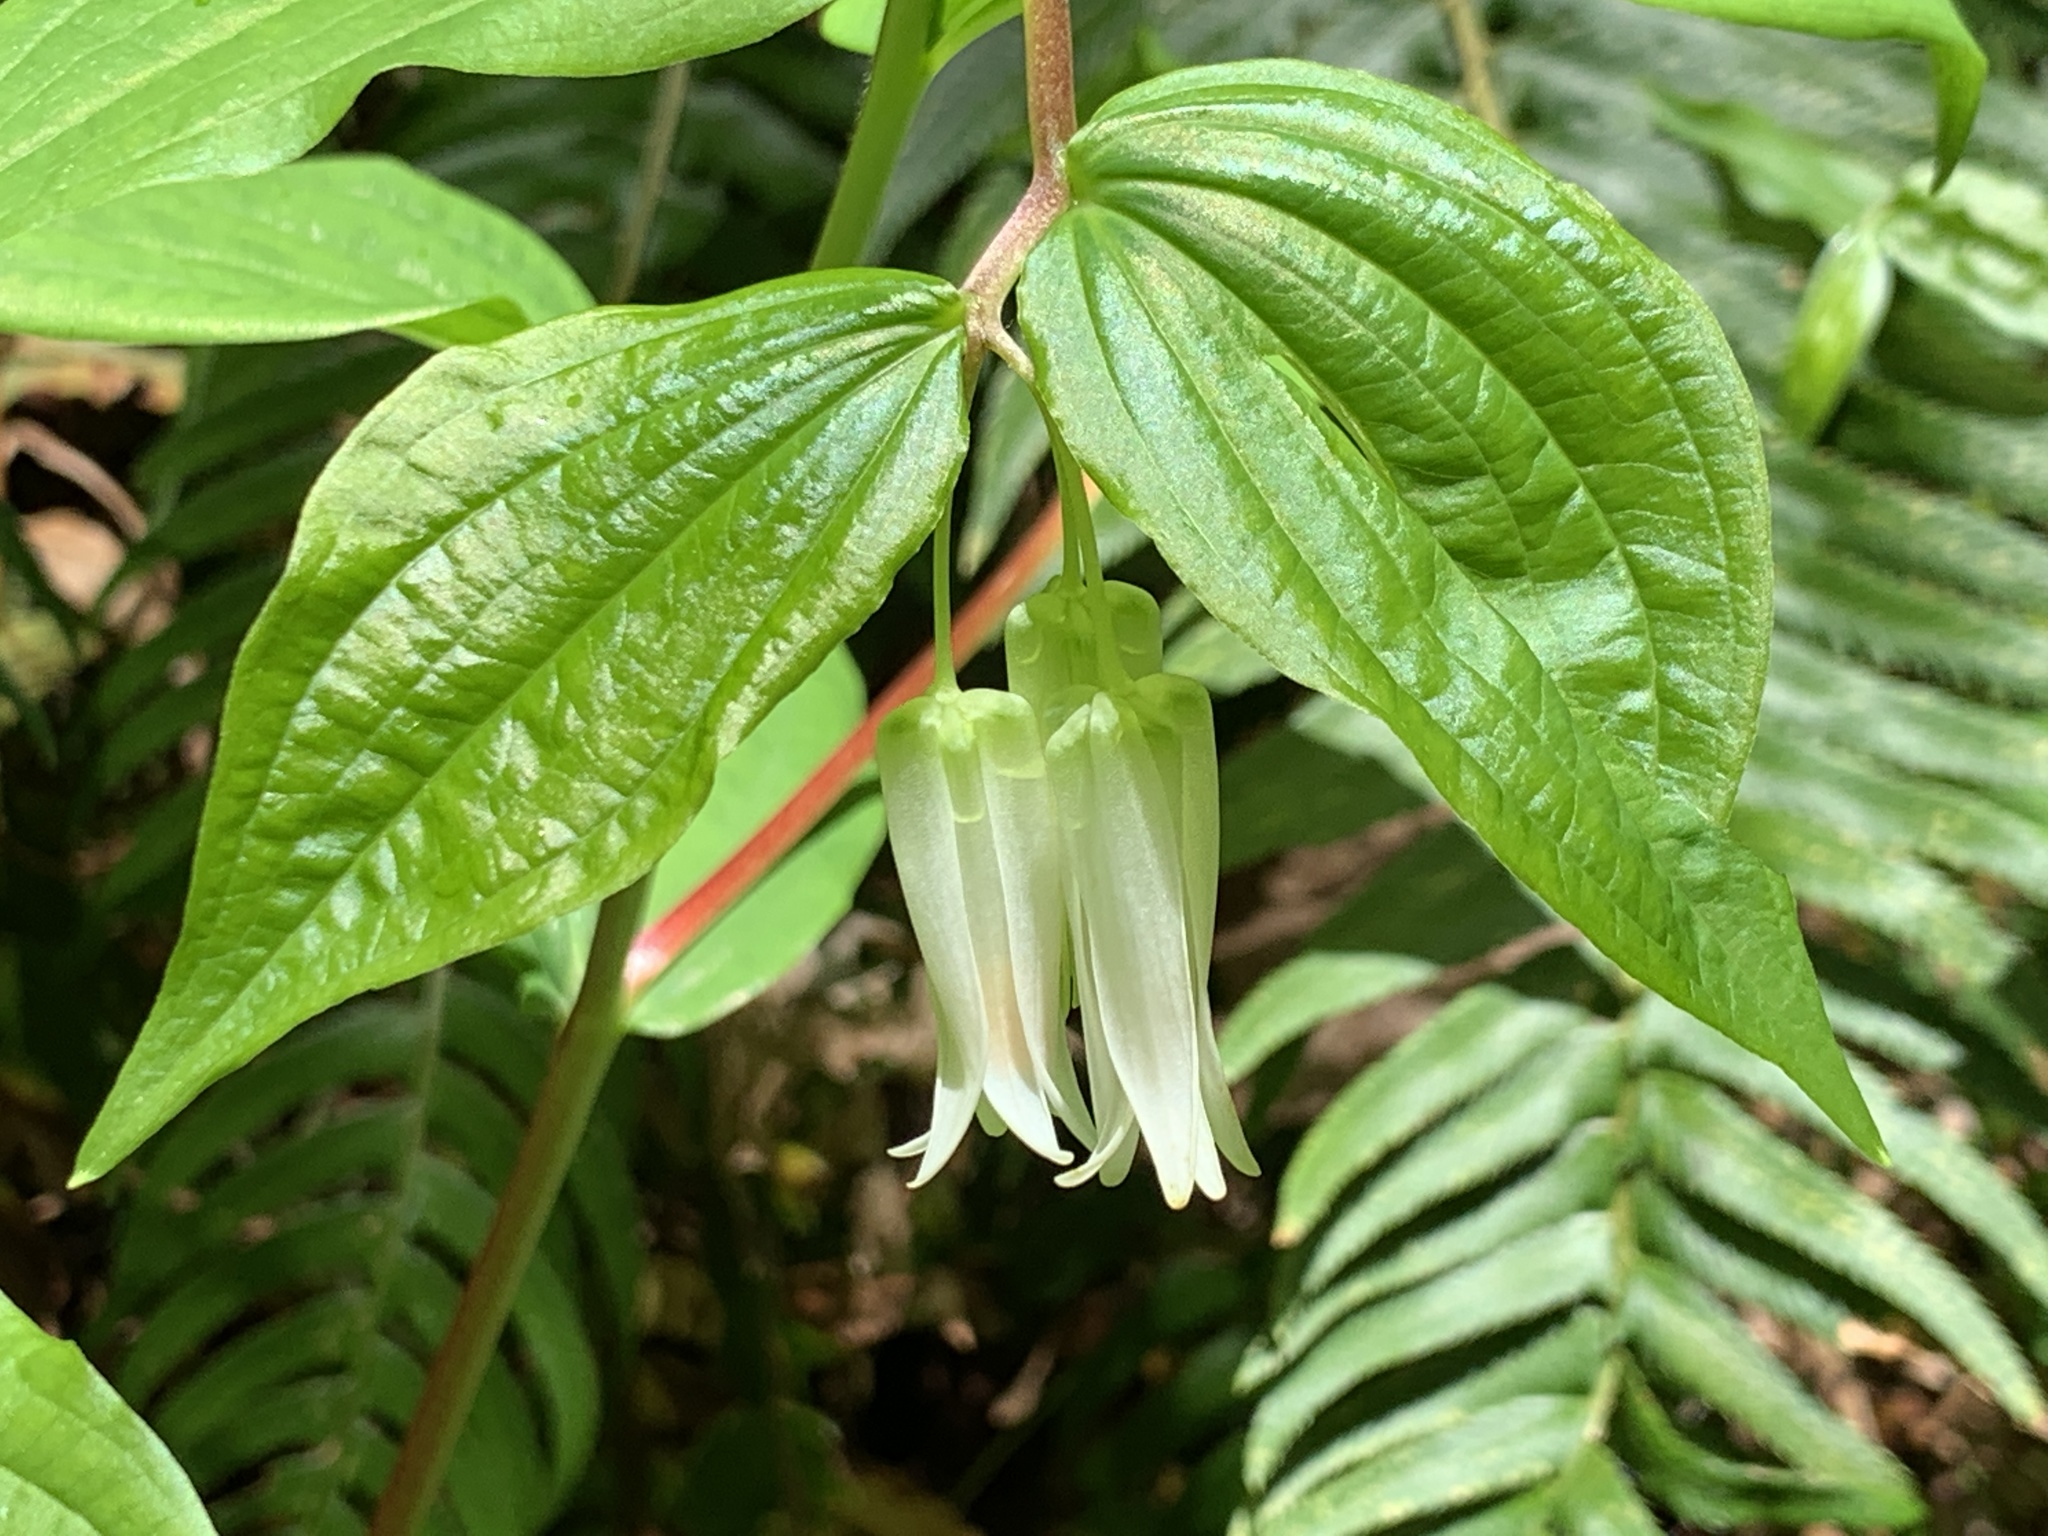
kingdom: Plantae
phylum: Tracheophyta
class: Liliopsida
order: Liliales
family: Liliaceae
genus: Prosartes
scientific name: Prosartes smithii
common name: Fairy-lantern
